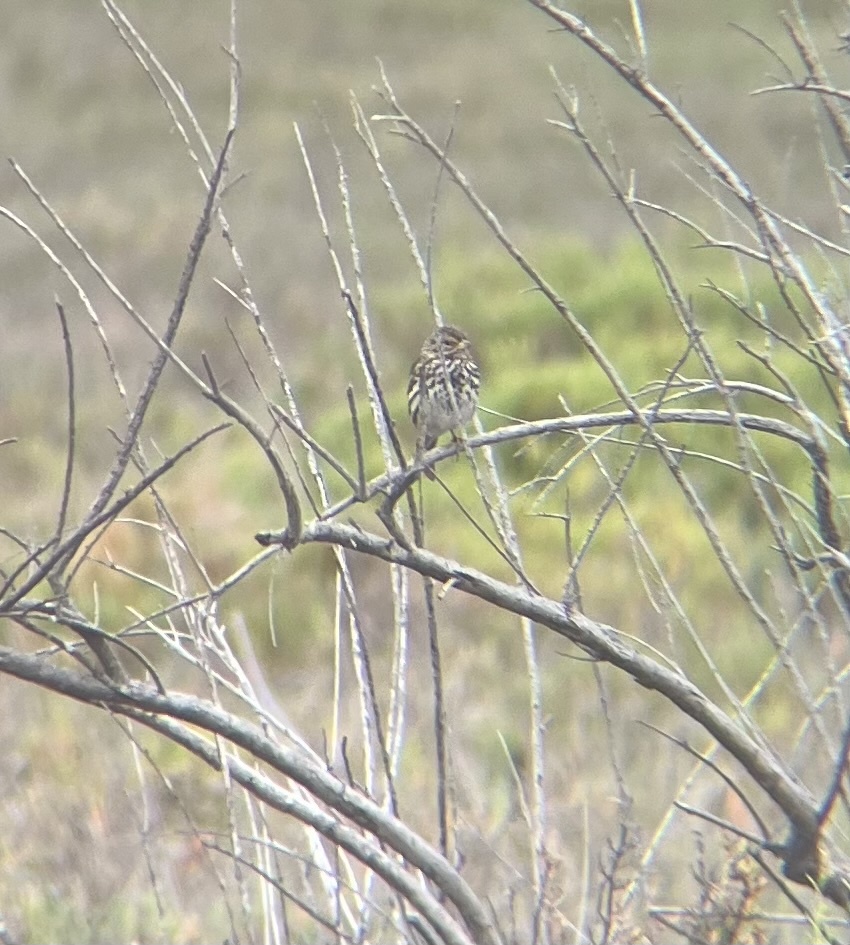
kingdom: Animalia
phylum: Chordata
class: Aves
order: Passeriformes
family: Passerellidae
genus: Passerculus
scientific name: Passerculus sandwichensis
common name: Savannah sparrow
